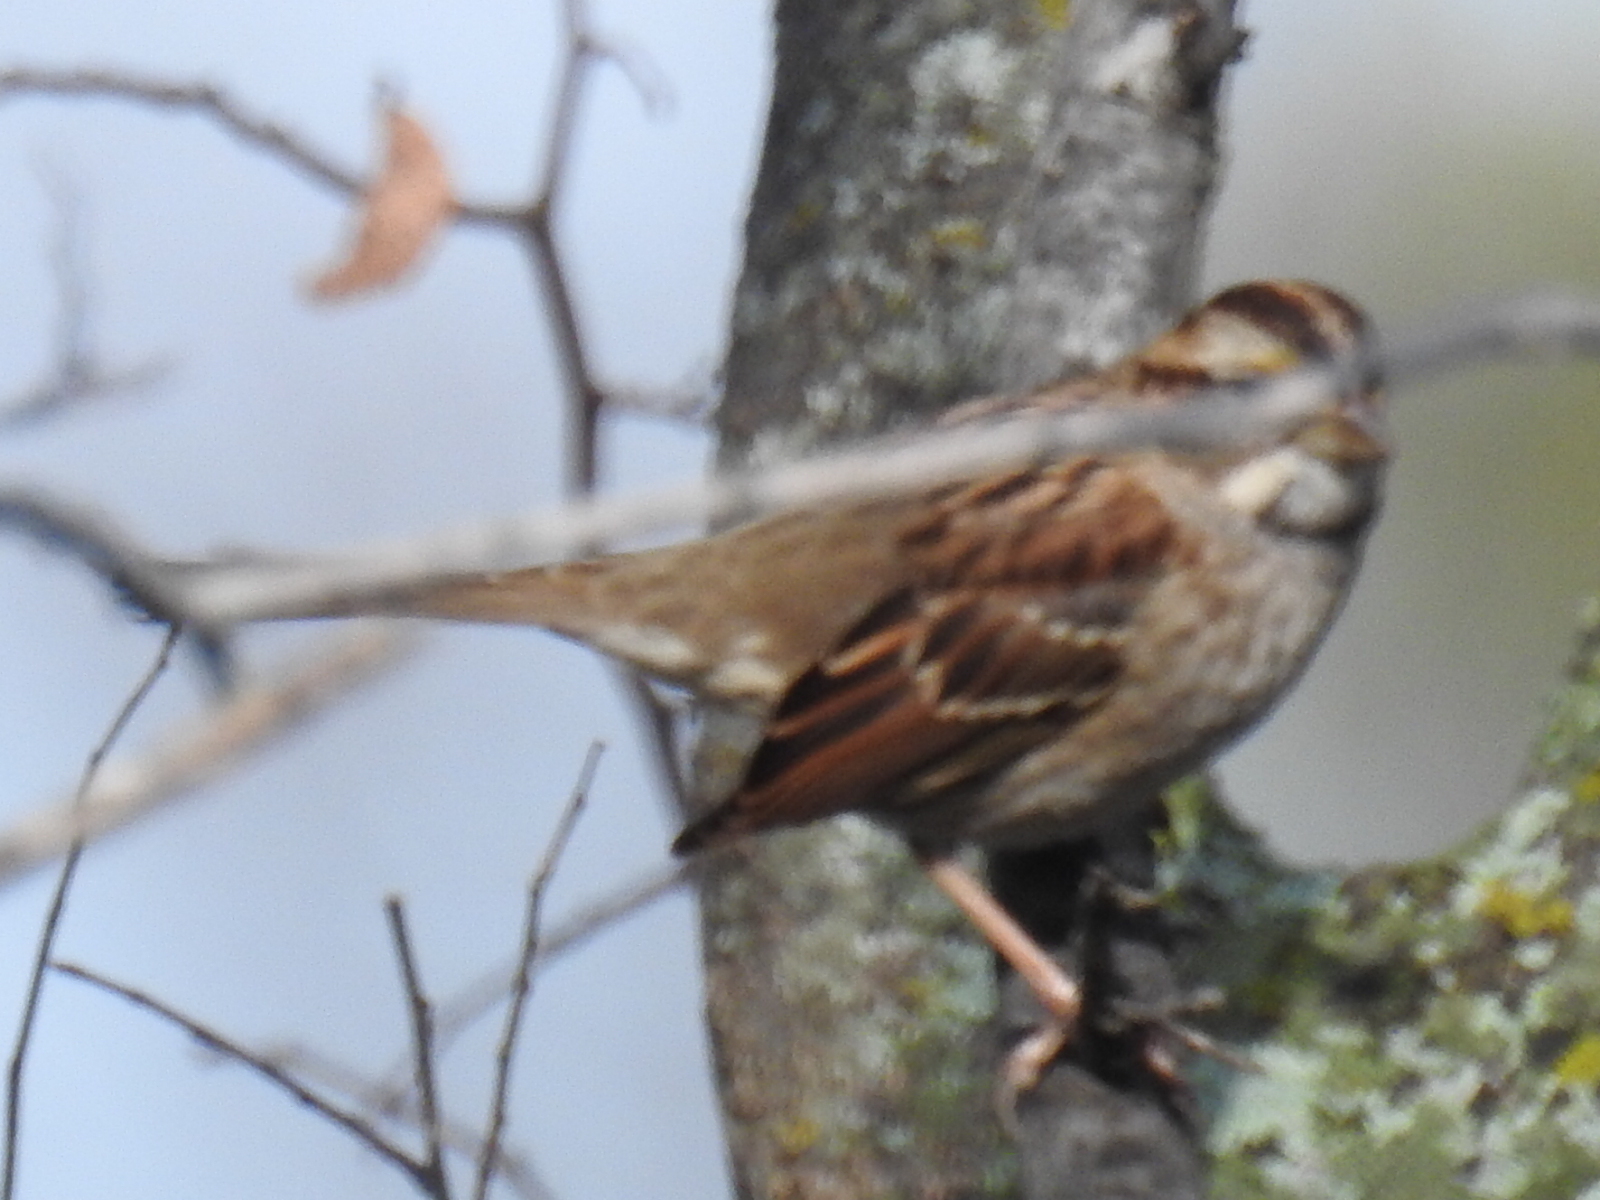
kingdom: Animalia
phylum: Chordata
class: Aves
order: Passeriformes
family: Passerellidae
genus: Zonotrichia
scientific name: Zonotrichia albicollis
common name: White-throated sparrow
